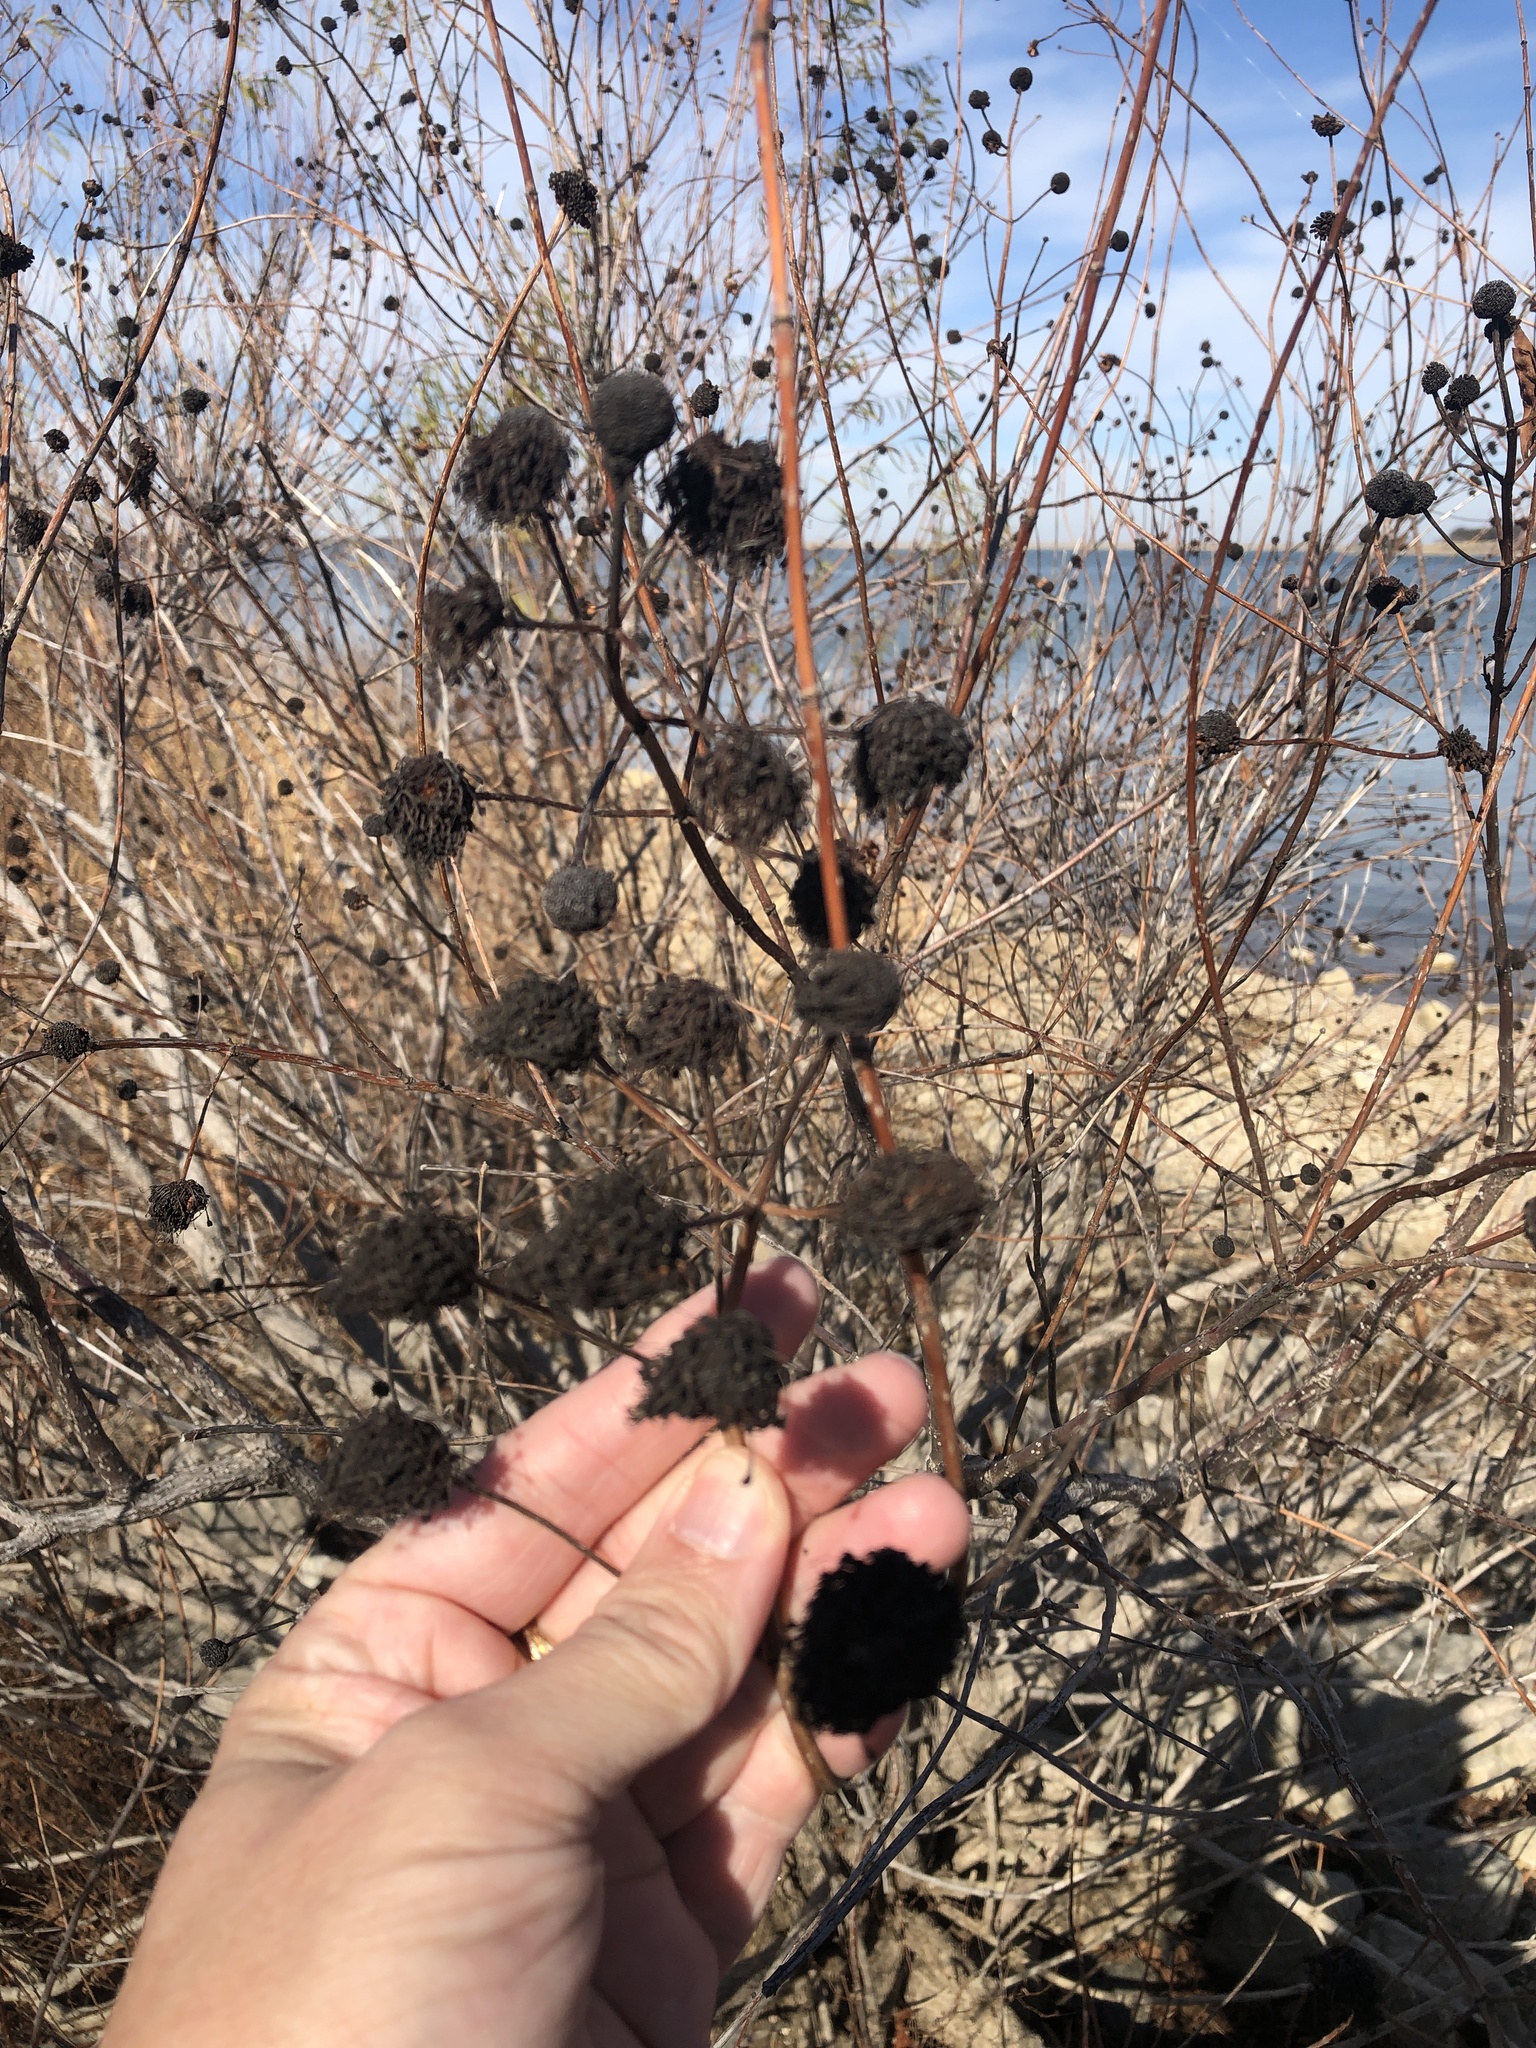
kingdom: Plantae
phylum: Tracheophyta
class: Magnoliopsida
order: Gentianales
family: Rubiaceae
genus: Cephalanthus
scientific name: Cephalanthus occidentalis
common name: Button-willow
